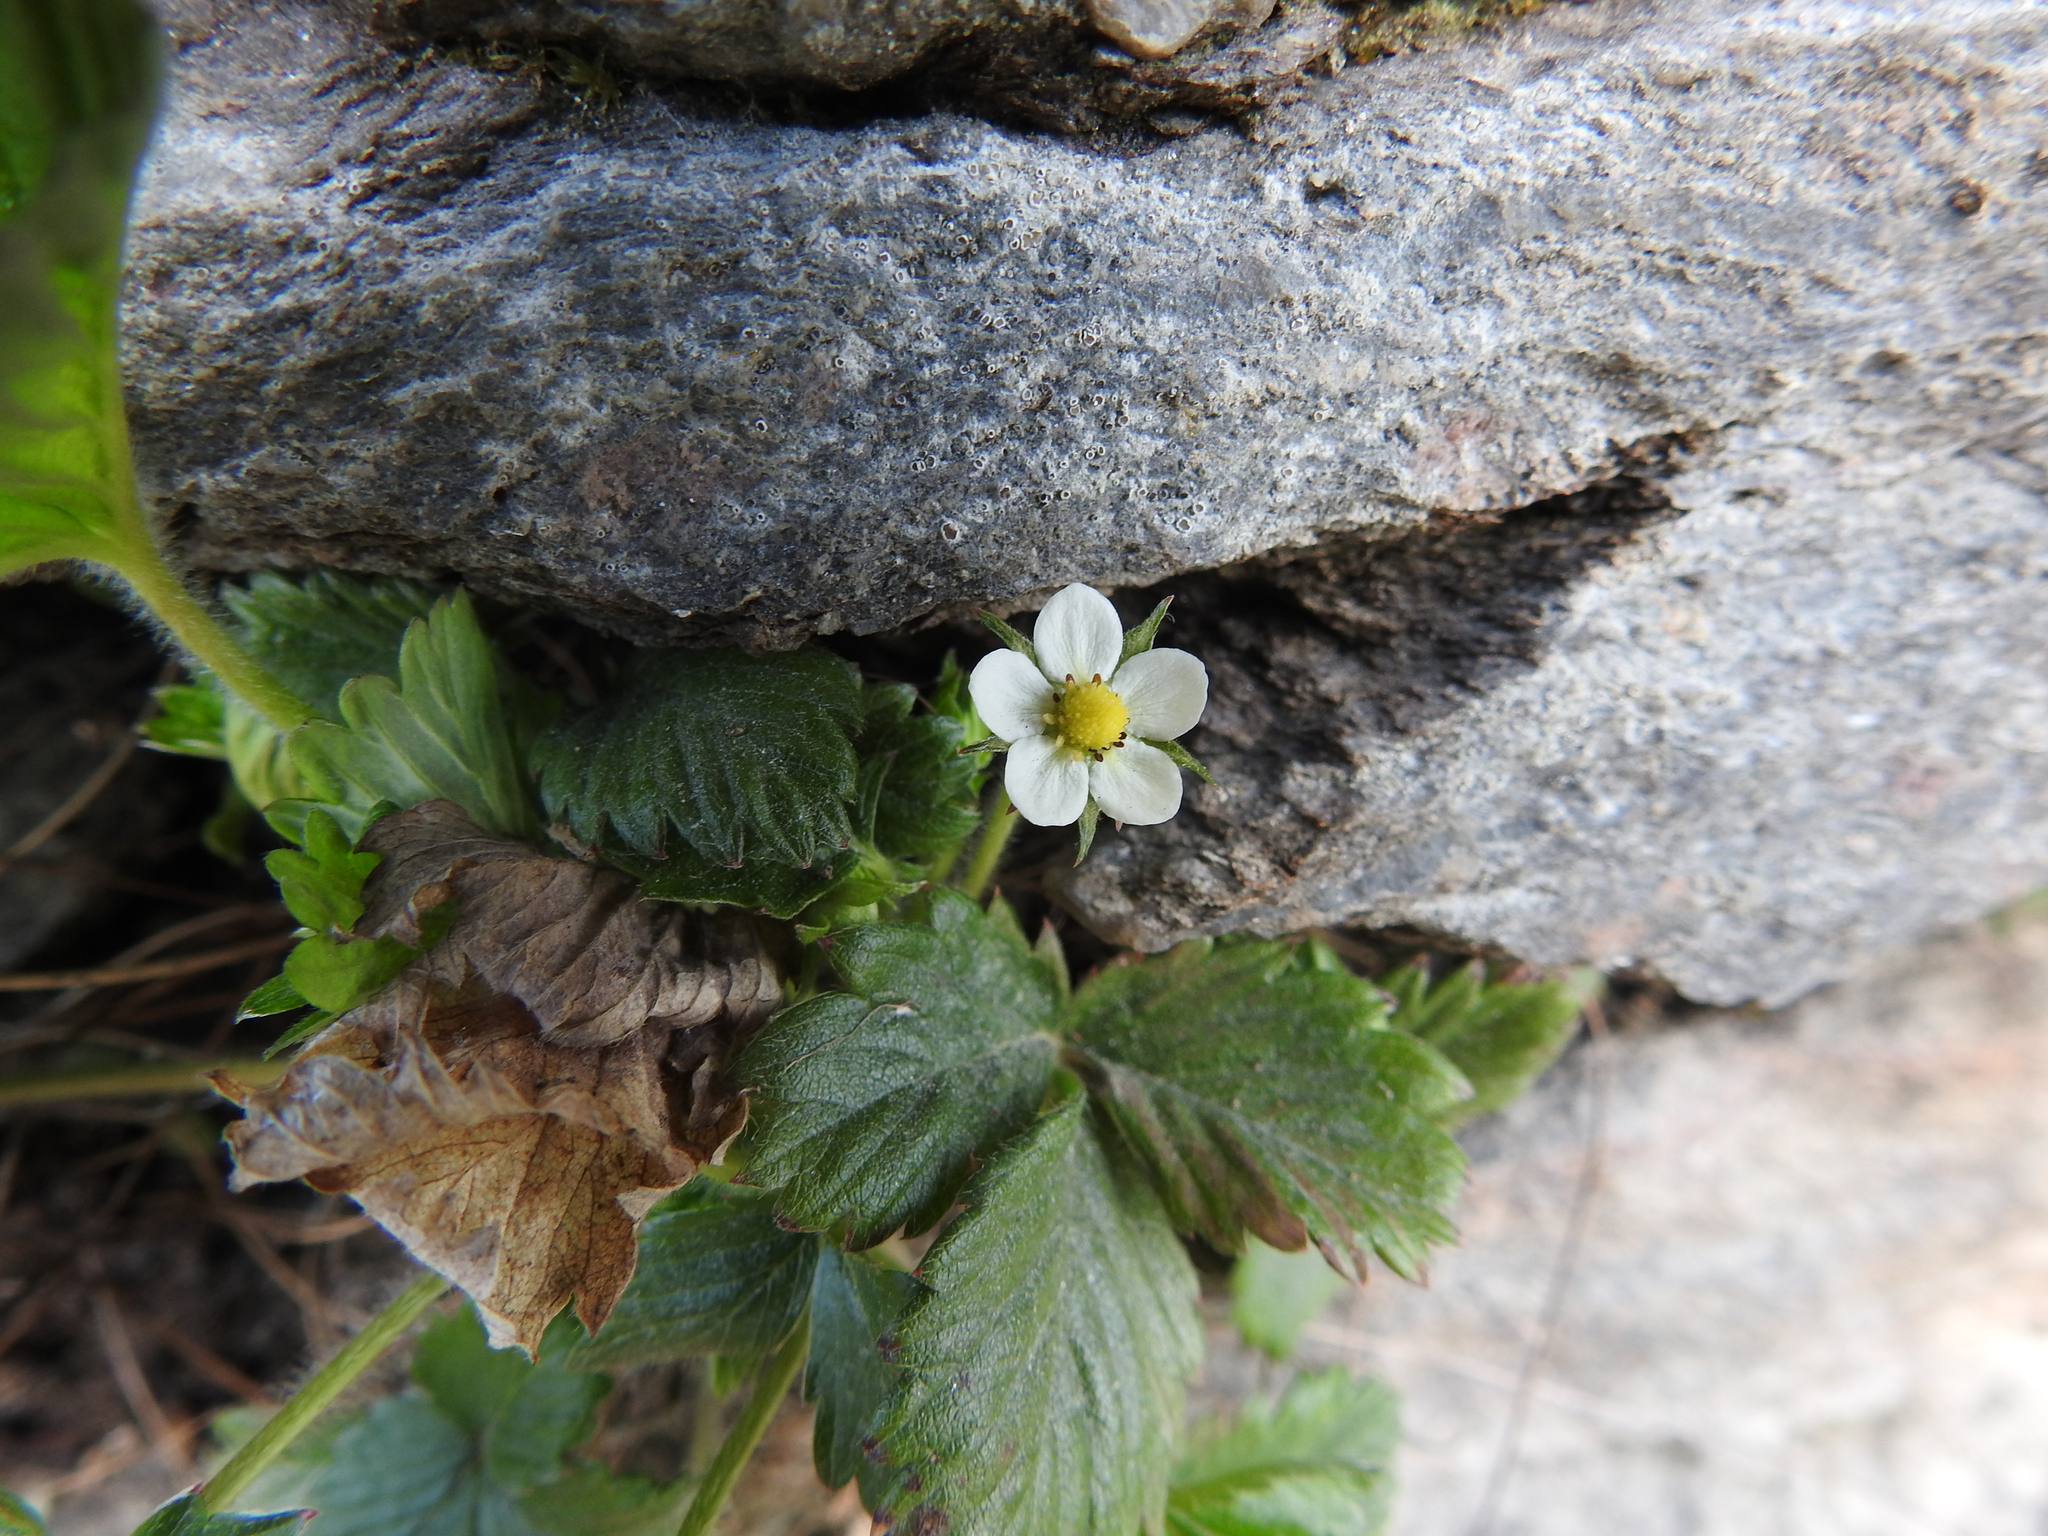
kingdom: Plantae
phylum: Tracheophyta
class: Magnoliopsida
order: Rosales
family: Rosaceae
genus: Fragaria
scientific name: Fragaria vesca
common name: Wild strawberry
